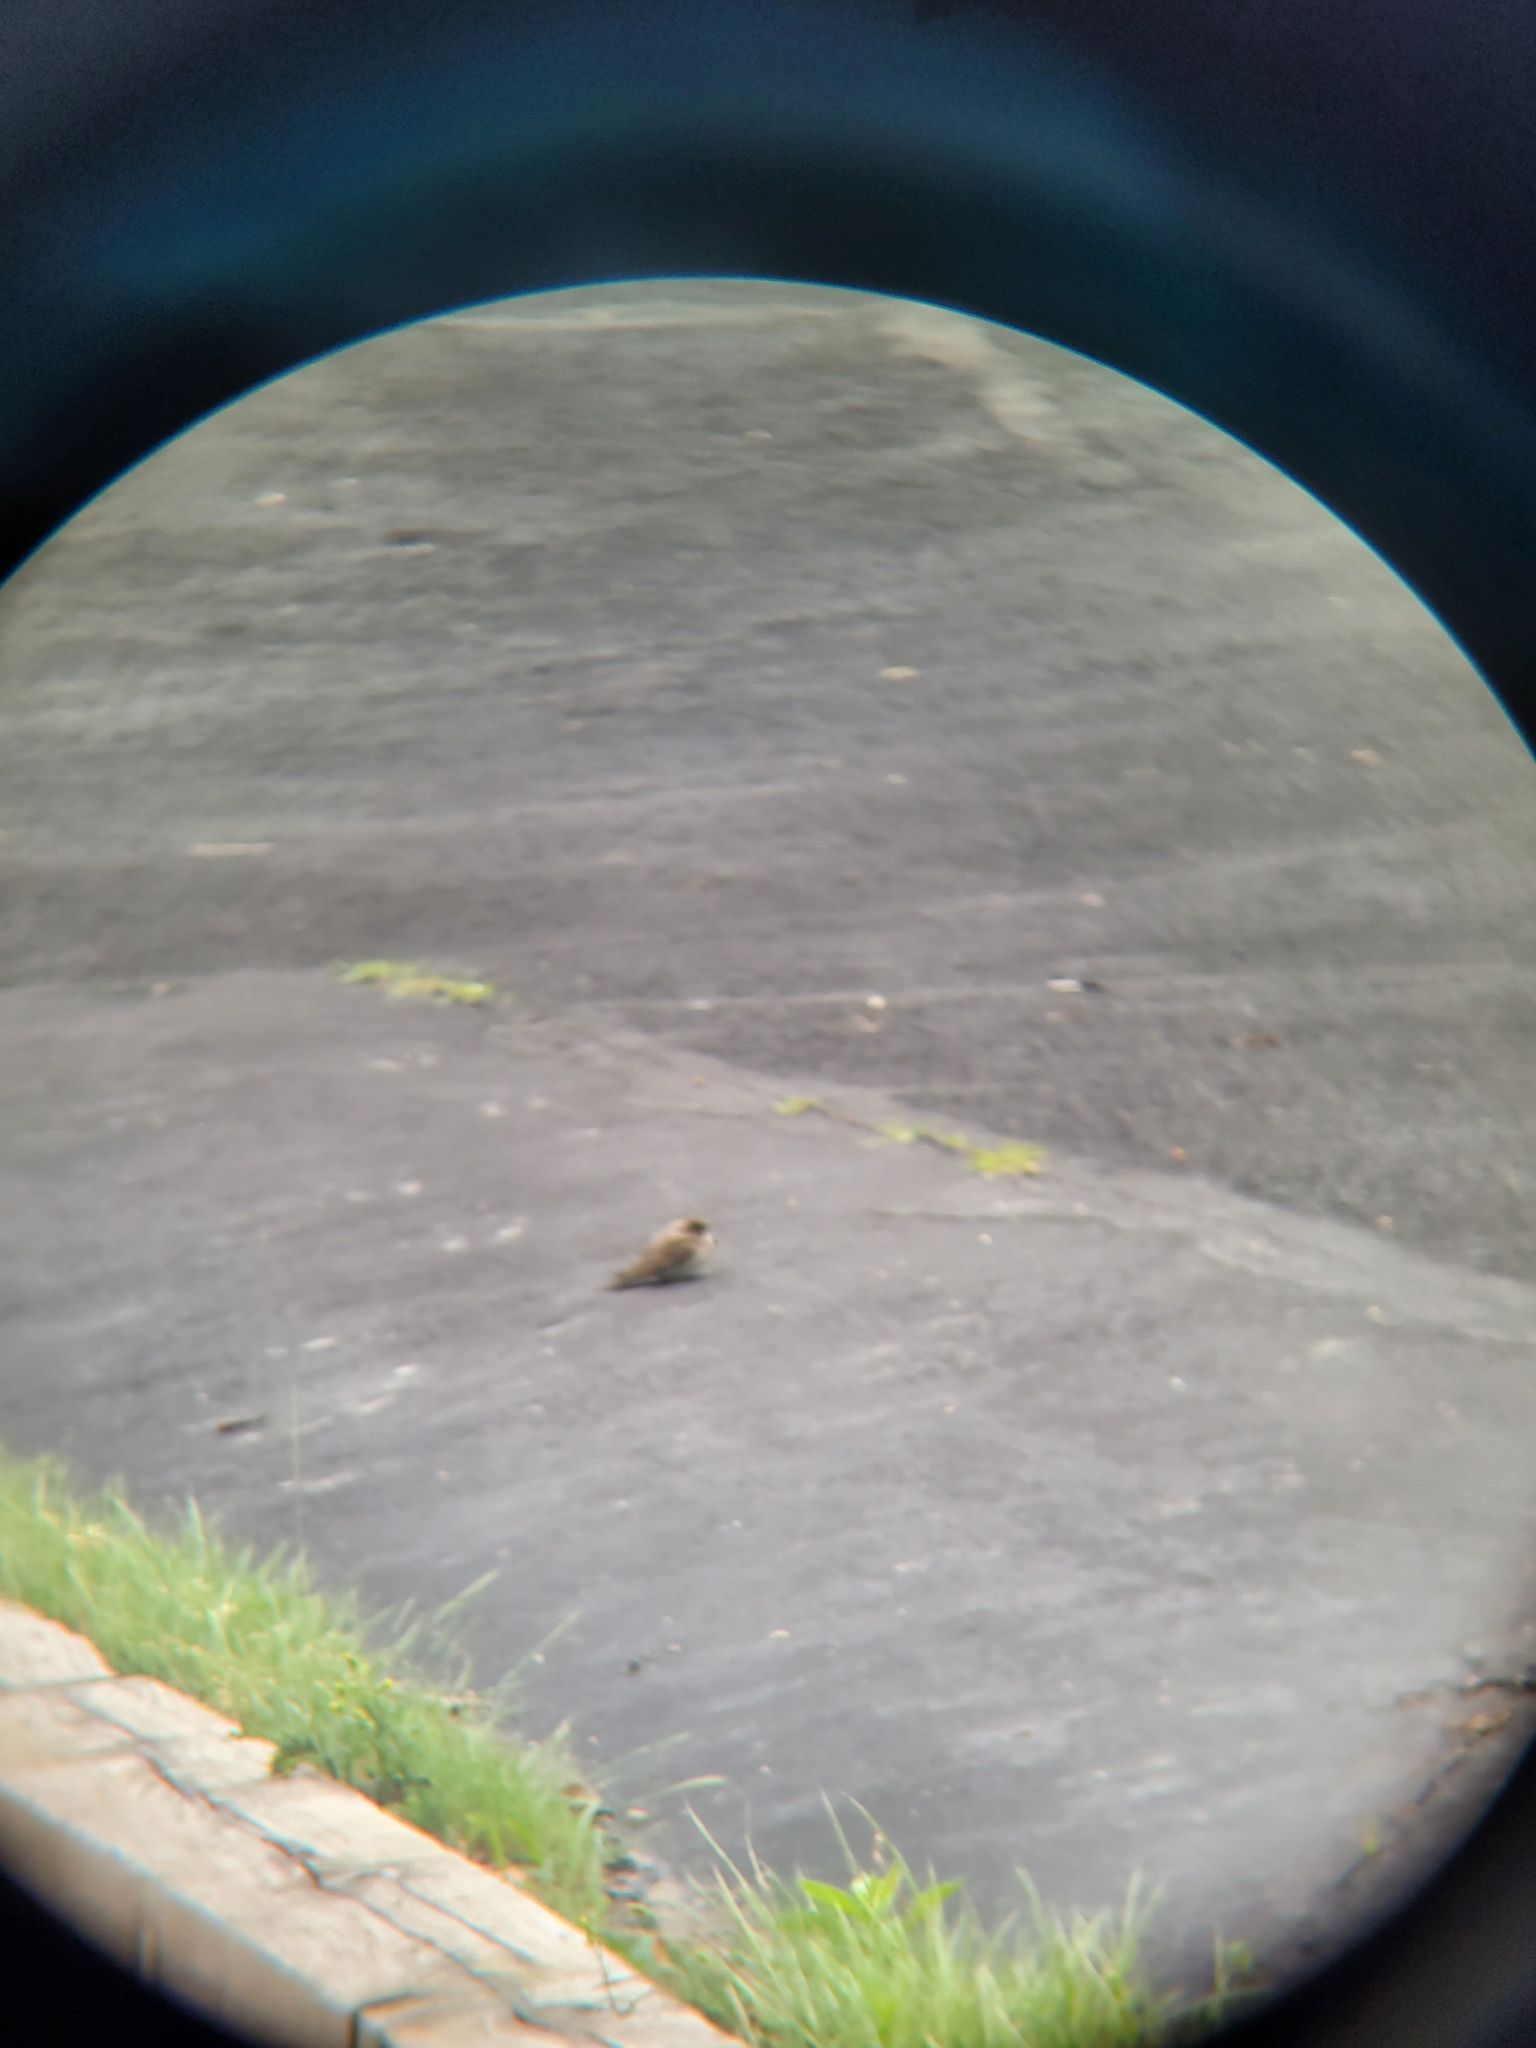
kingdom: Animalia
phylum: Chordata
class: Aves
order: Passeriformes
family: Hirundinidae
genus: Stelgidopteryx
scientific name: Stelgidopteryx serripennis
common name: Northern rough-winged swallow
